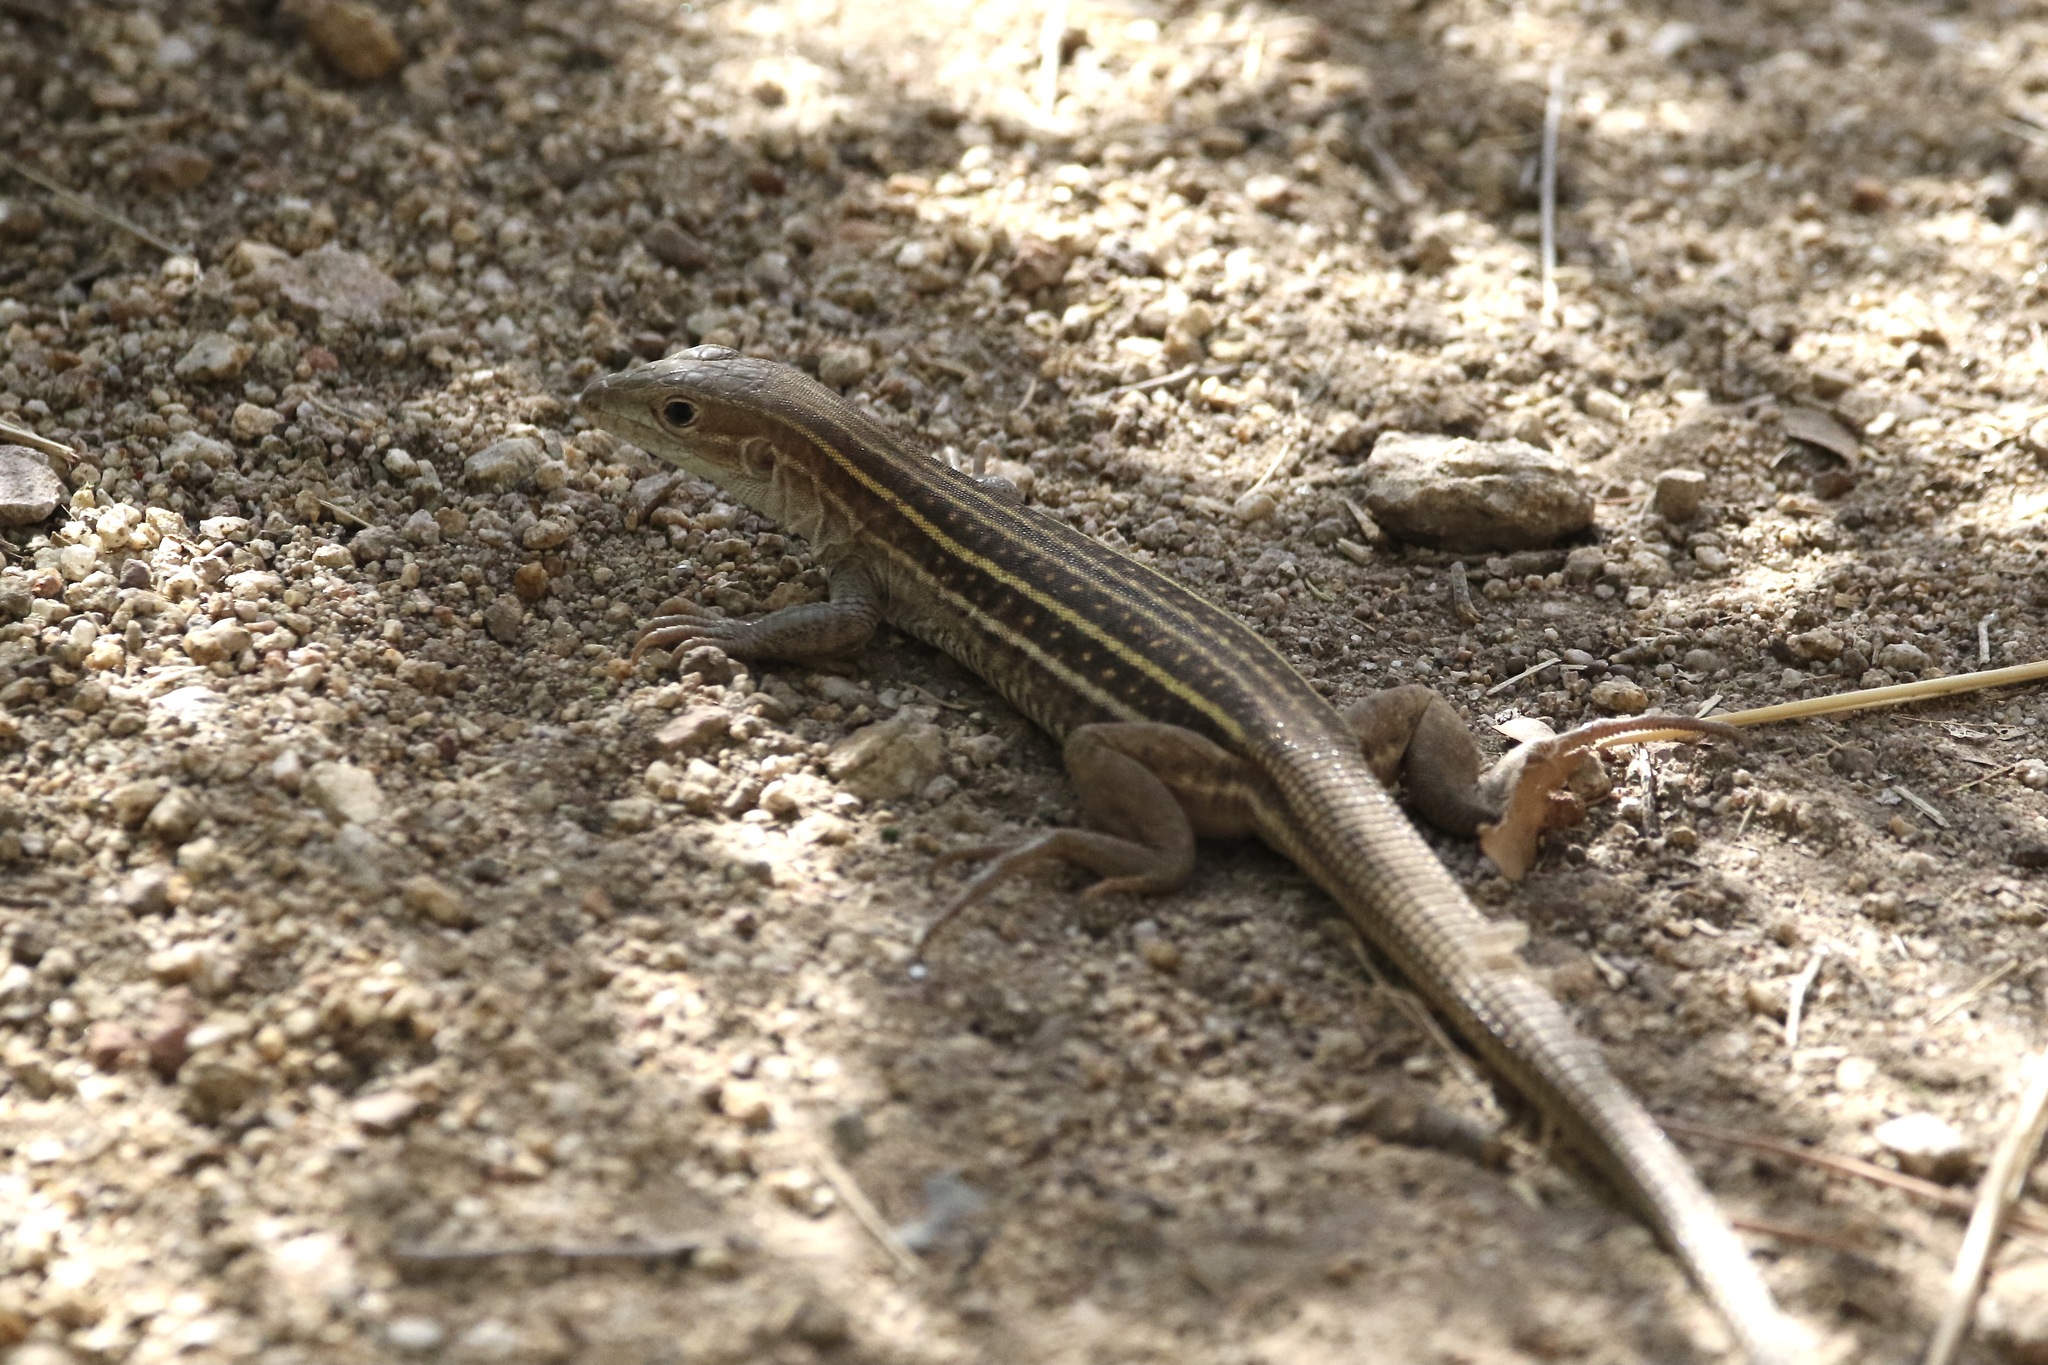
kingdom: Animalia
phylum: Chordata
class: Squamata
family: Teiidae
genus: Aspidoscelis
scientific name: Aspidoscelis sonorae
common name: Sonoran spotted whiptail
